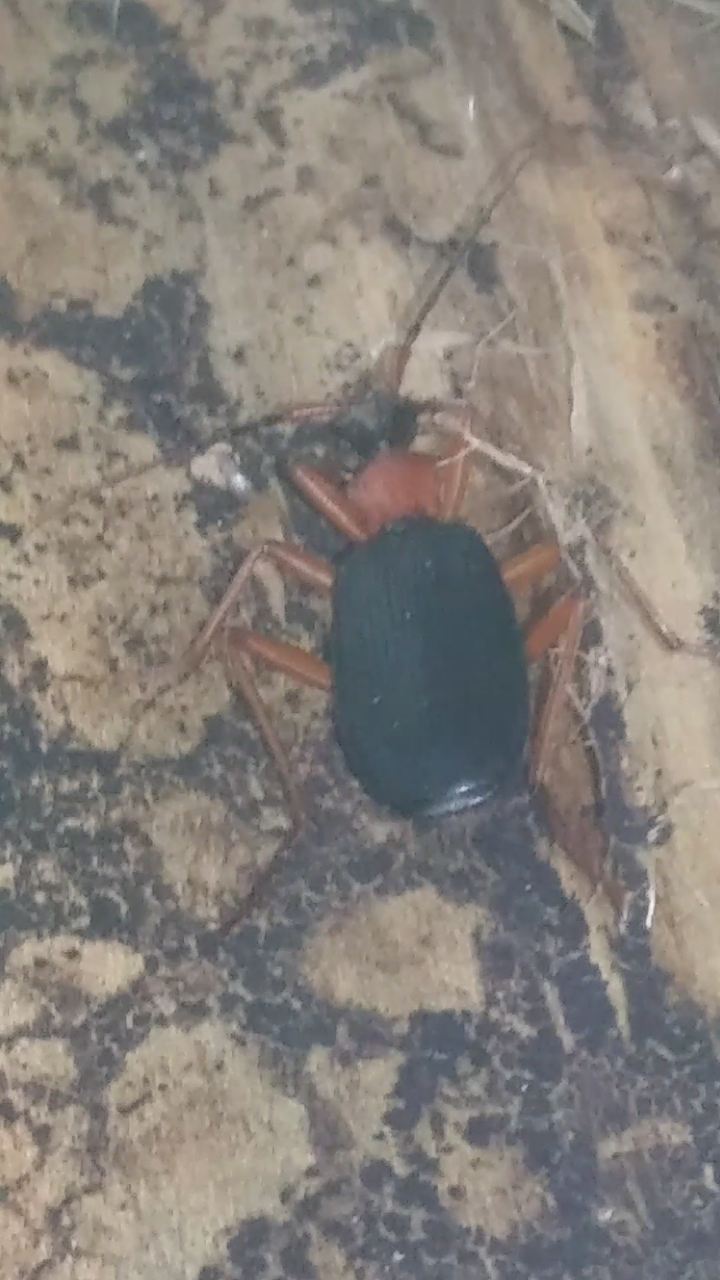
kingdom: Animalia
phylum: Arthropoda
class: Insecta
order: Coleoptera
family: Carabidae
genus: Galerita
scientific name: Galerita bicolor
